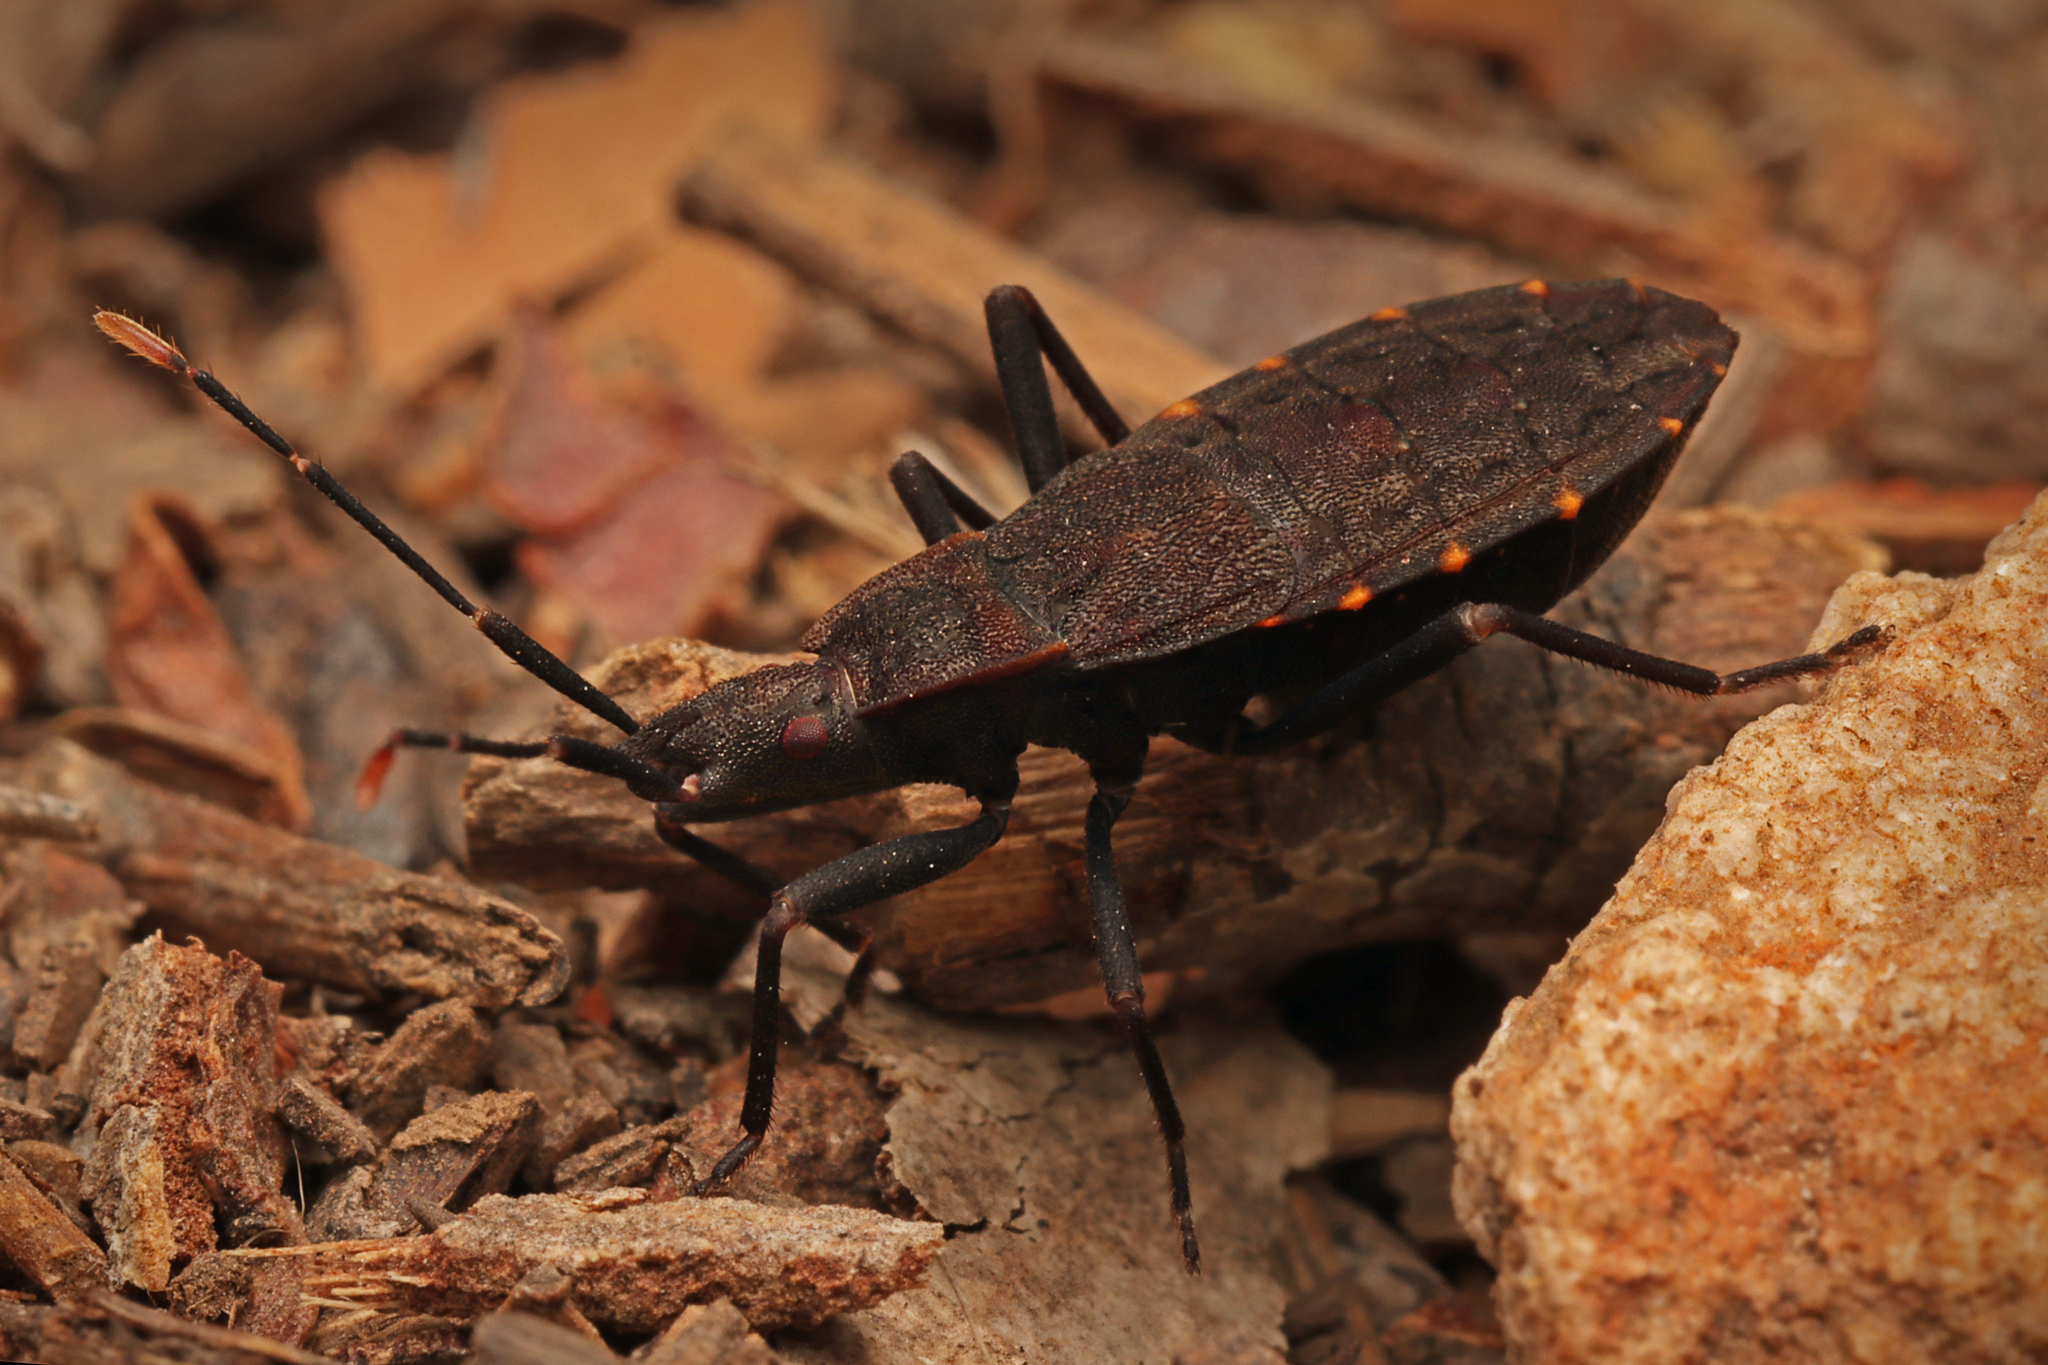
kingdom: Animalia
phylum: Arthropoda
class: Insecta
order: Hemiptera
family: Hyocephalidae
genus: Hyocephalus
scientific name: Hyocephalus aprugnus
